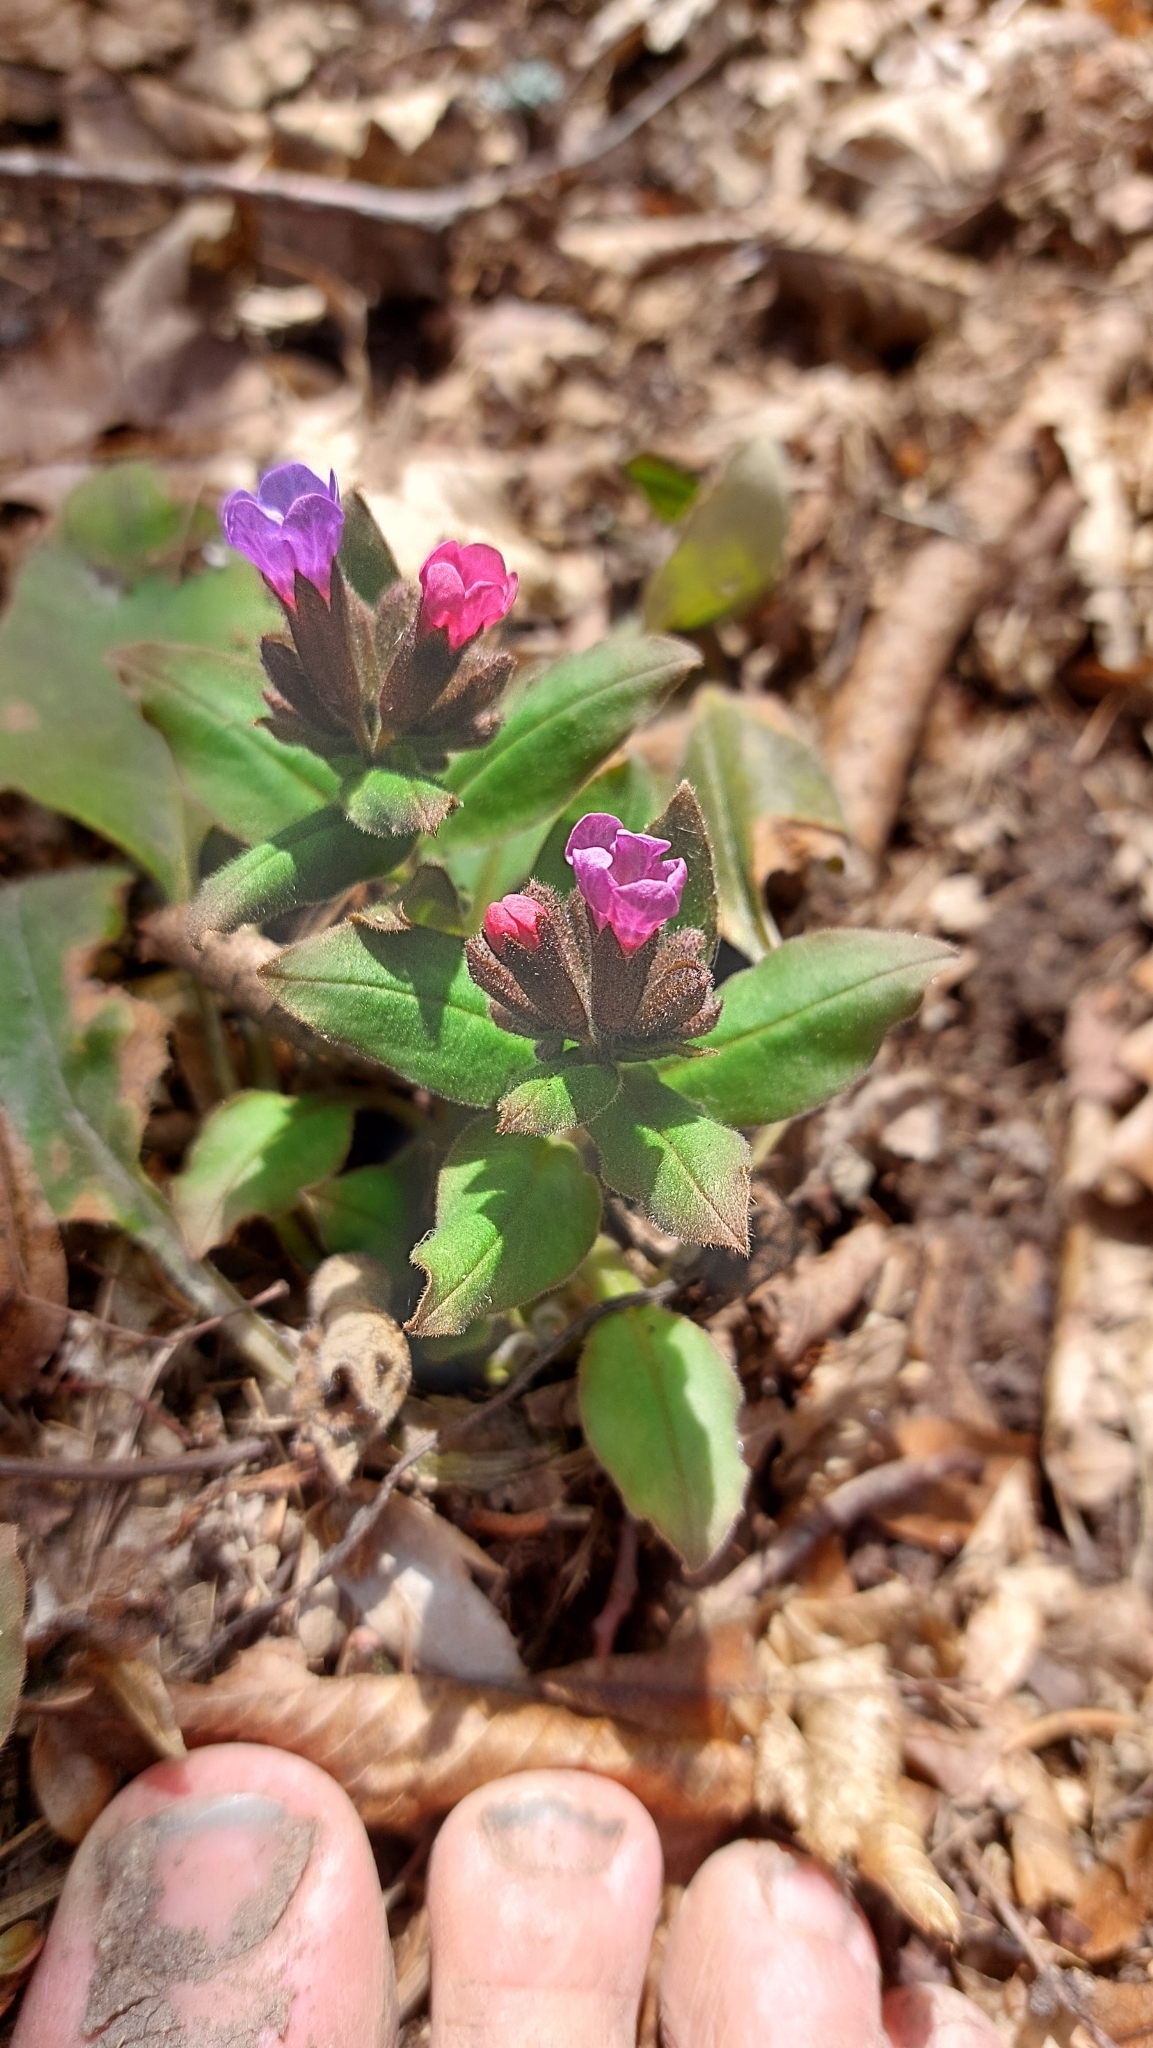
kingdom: Plantae
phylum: Tracheophyta
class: Magnoliopsida
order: Boraginales
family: Boraginaceae
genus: Pulmonaria
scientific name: Pulmonaria obscura
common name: Suffolk lungwort
